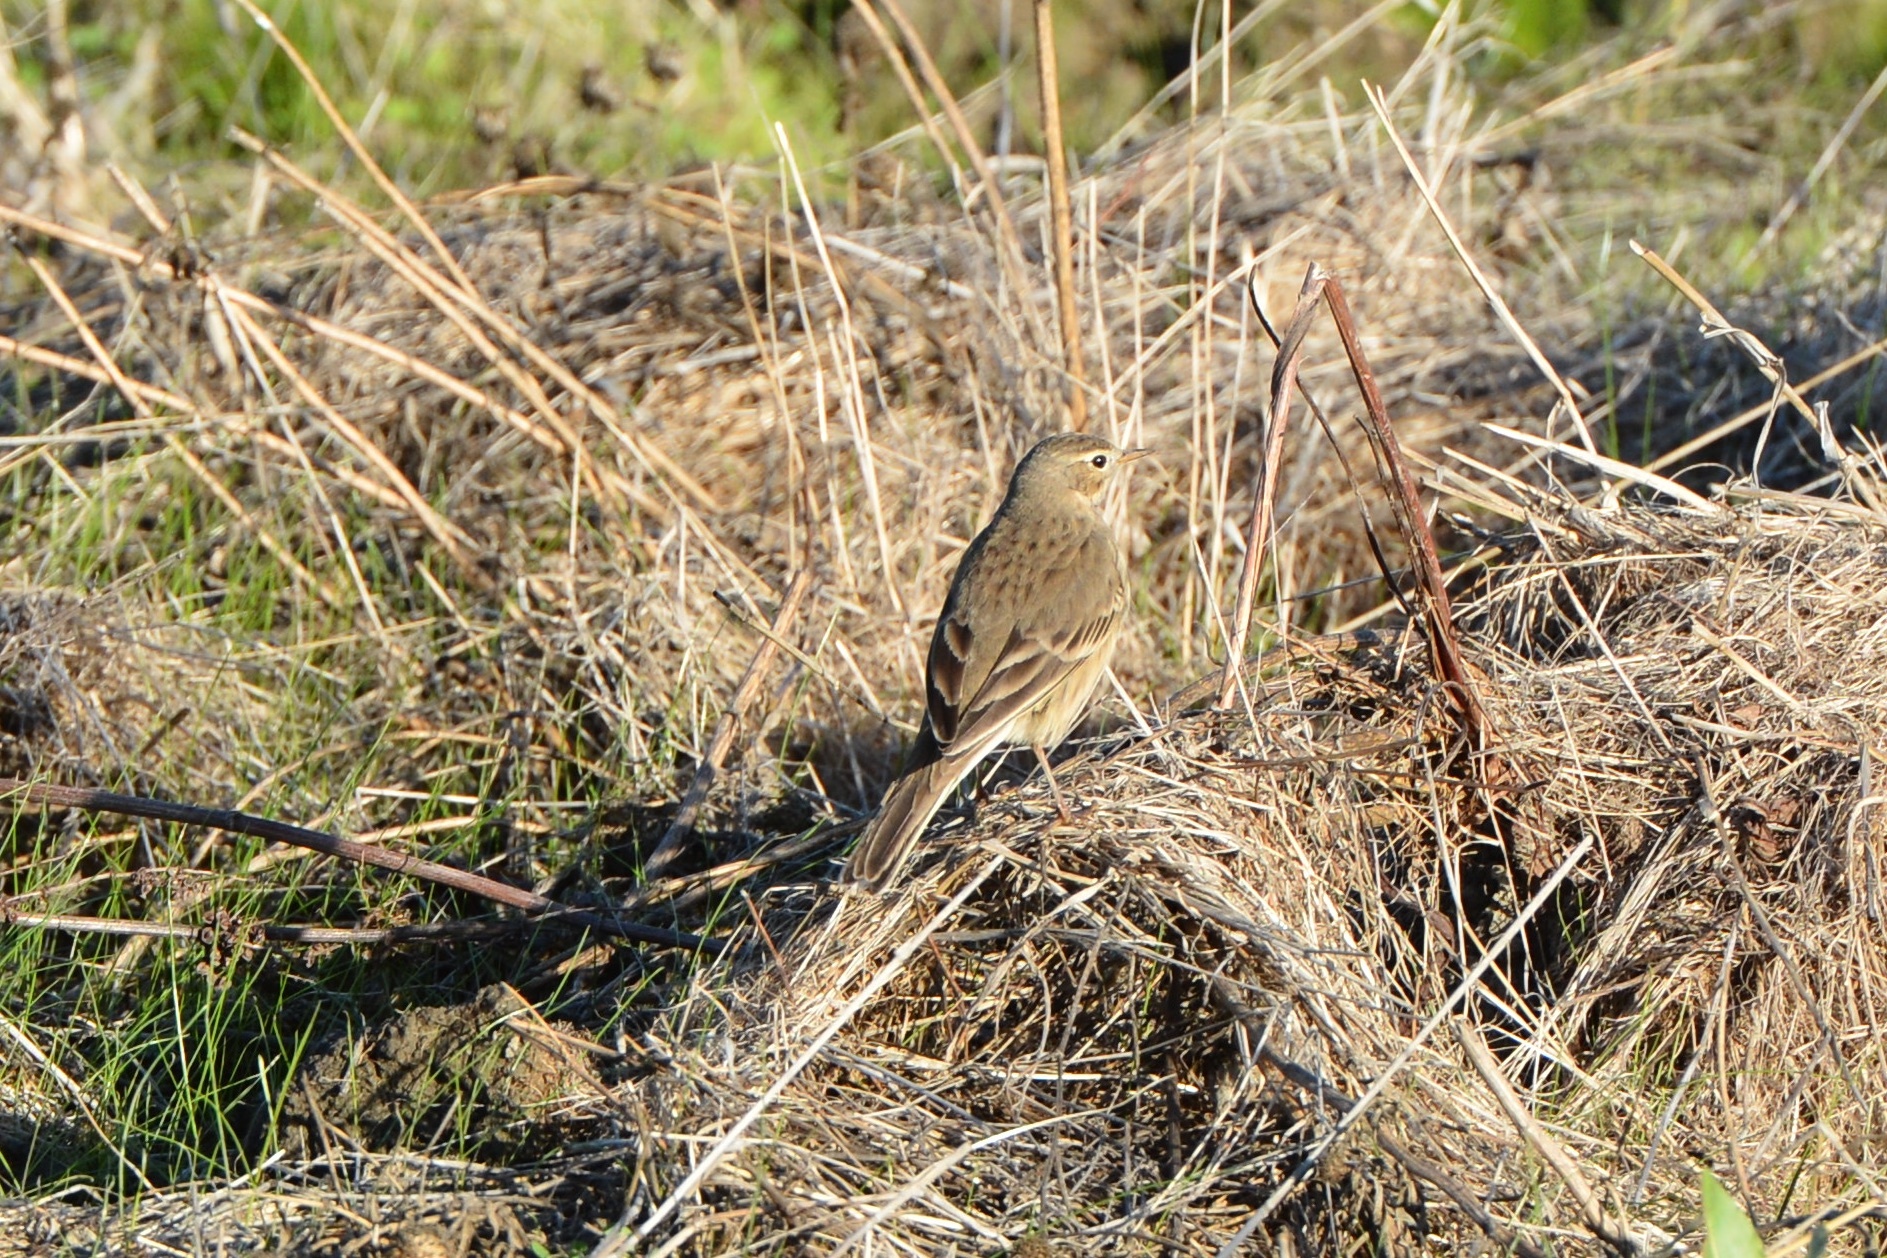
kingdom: Animalia
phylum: Chordata
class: Aves
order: Passeriformes
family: Motacillidae
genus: Anthus
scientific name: Anthus rubescens
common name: Buff-bellied pipit
